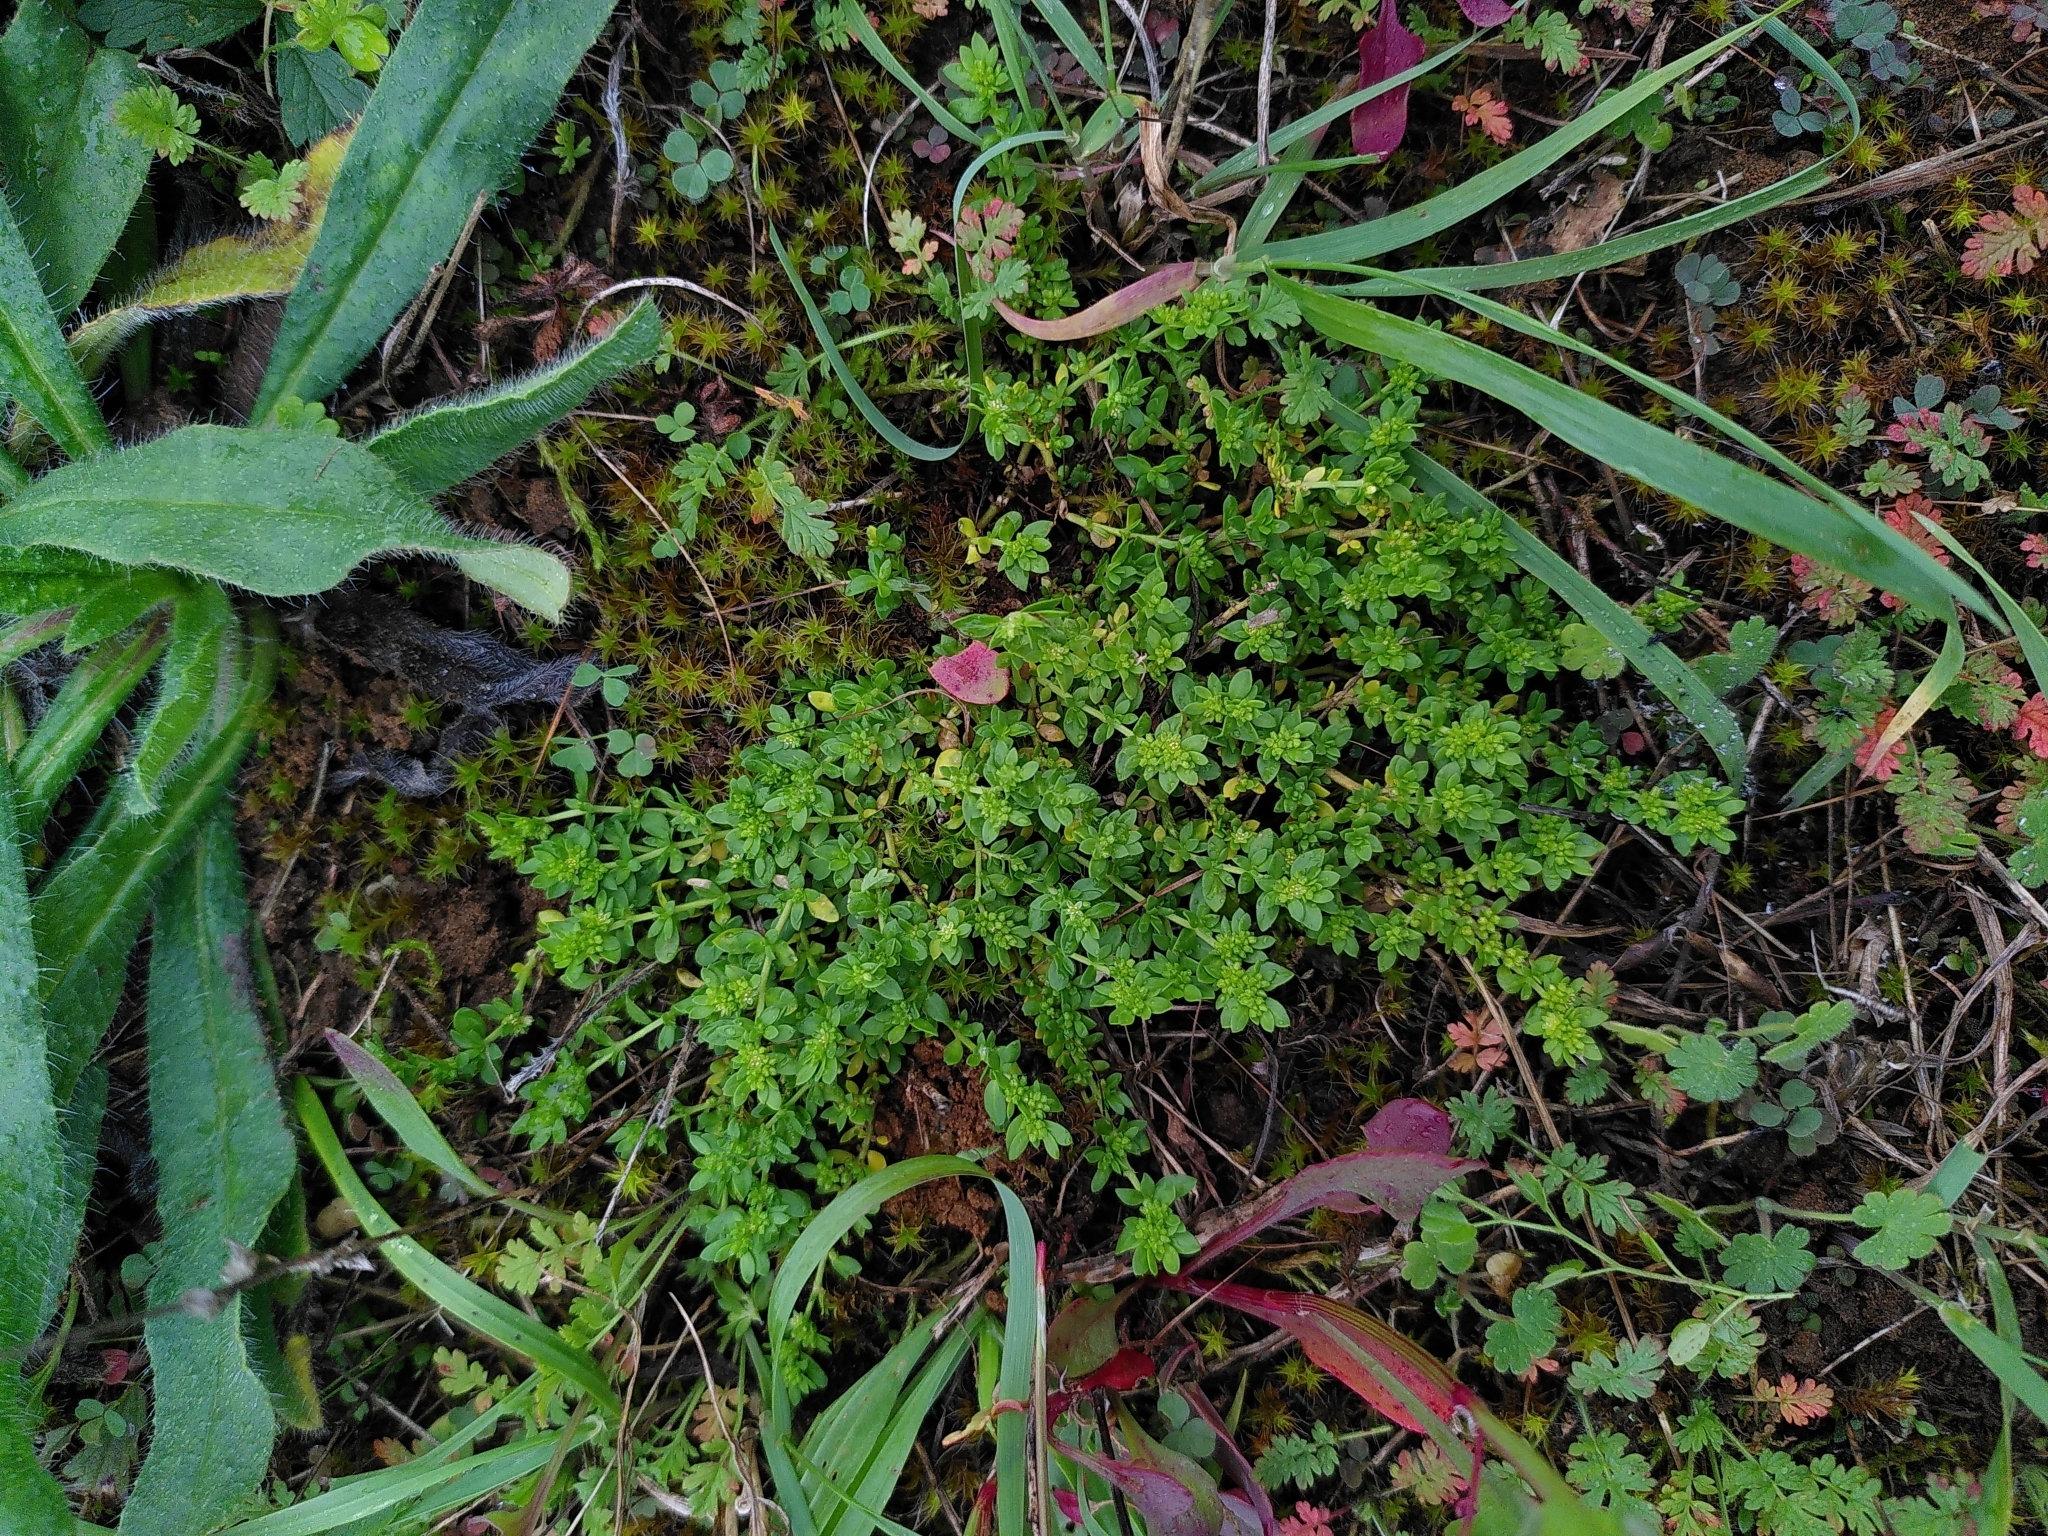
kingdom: Plantae
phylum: Tracheophyta
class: Magnoliopsida
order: Caryophyllales
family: Caryophyllaceae
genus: Herniaria
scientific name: Herniaria glabra
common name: Smooth rupturewort
